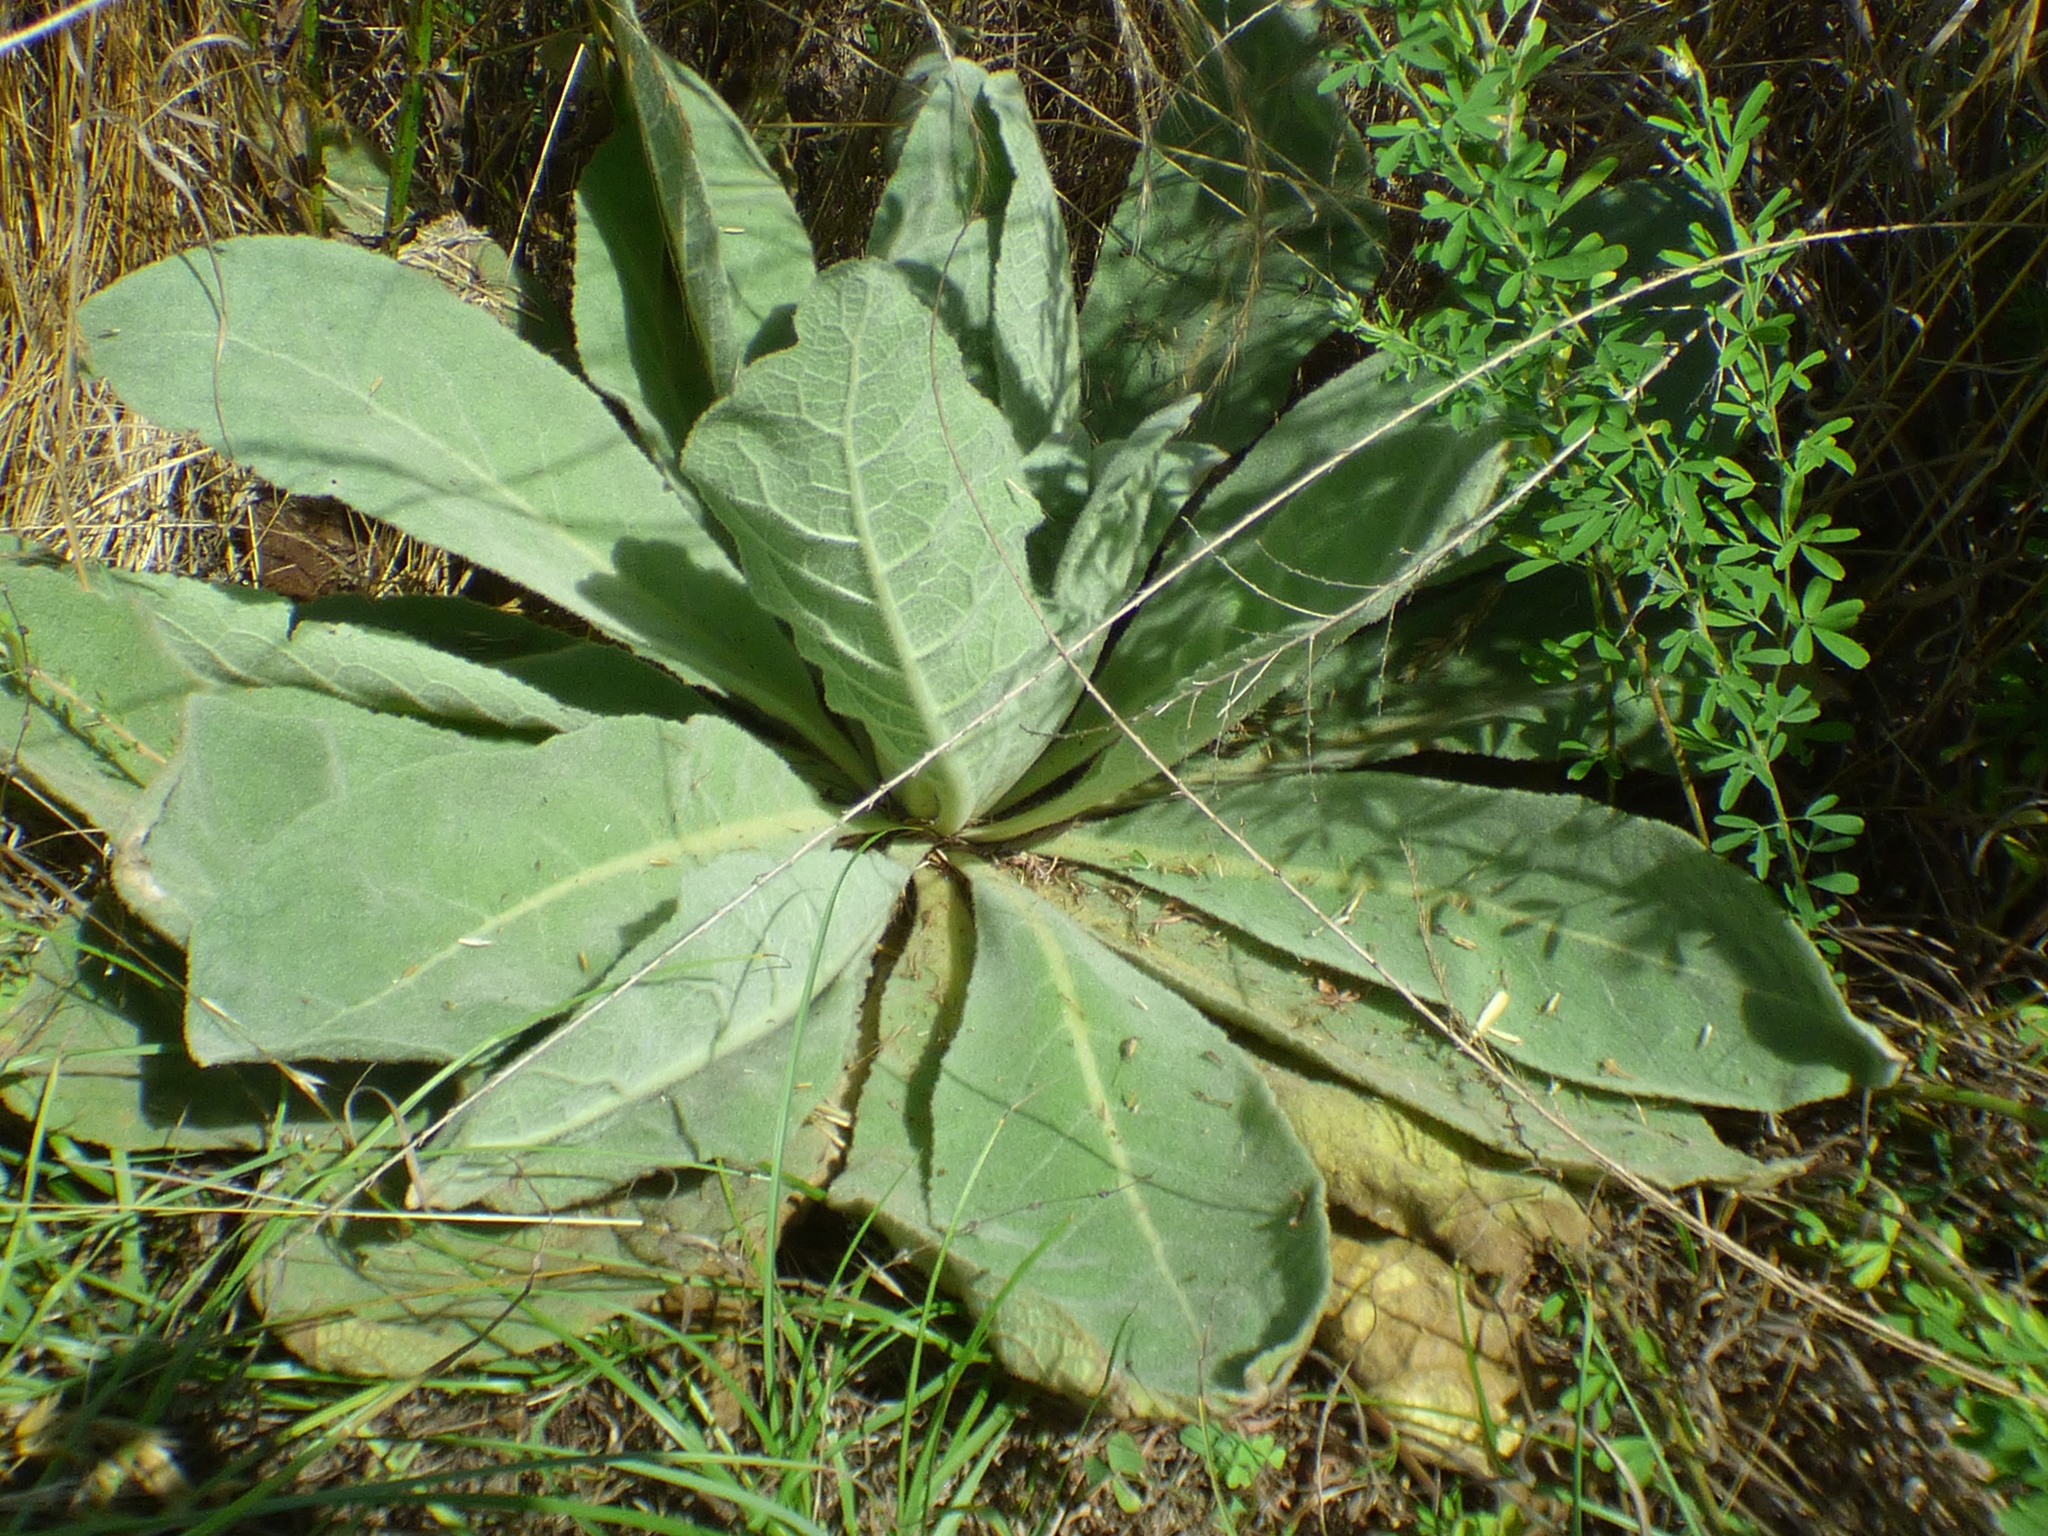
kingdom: Plantae
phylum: Tracheophyta
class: Magnoliopsida
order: Lamiales
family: Scrophulariaceae
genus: Verbascum
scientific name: Verbascum thapsus
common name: Common mullein
